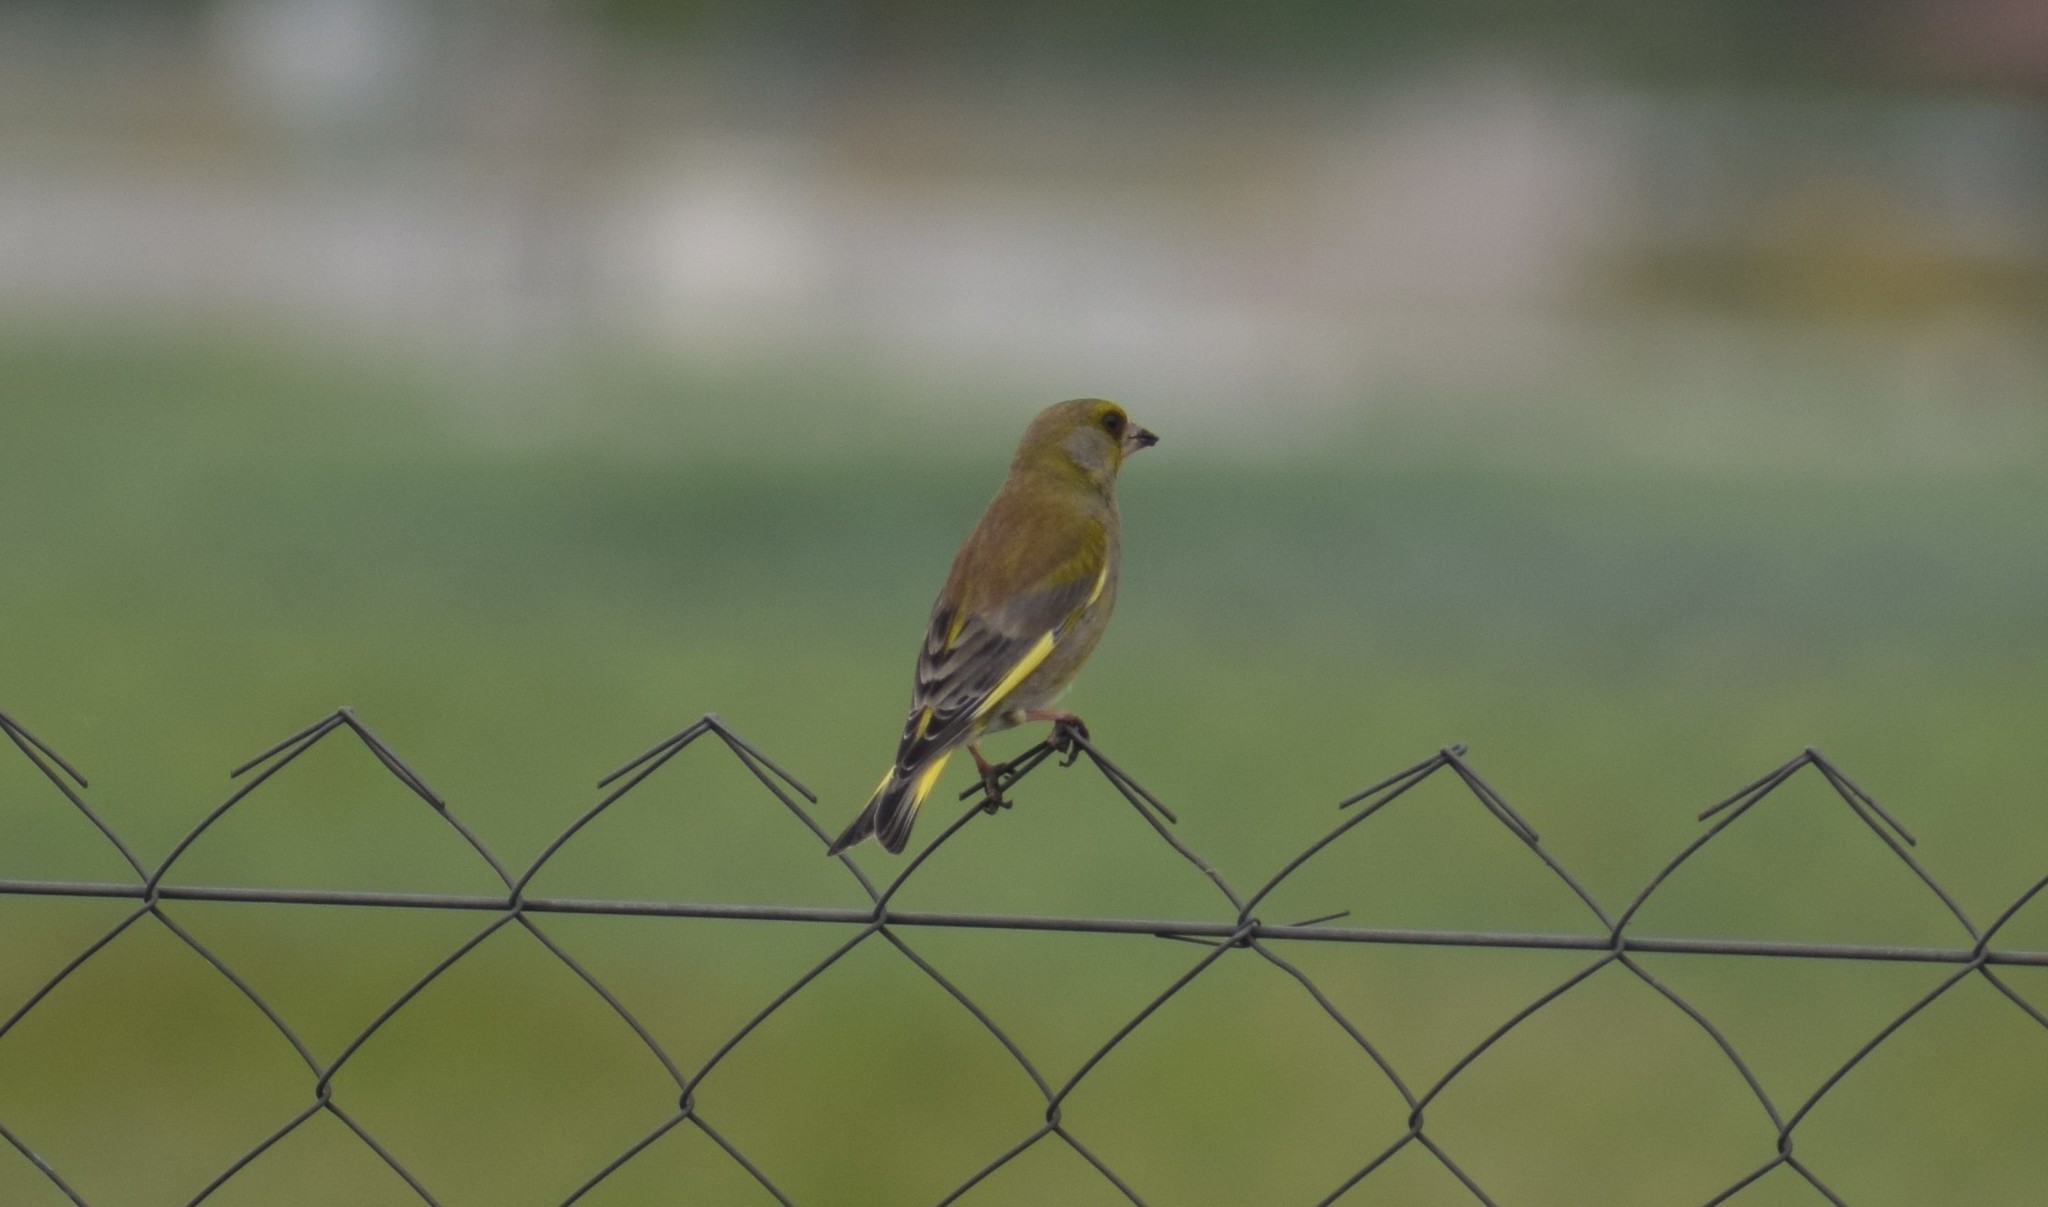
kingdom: Plantae
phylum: Tracheophyta
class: Liliopsida
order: Poales
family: Poaceae
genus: Chloris
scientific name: Chloris chloris
